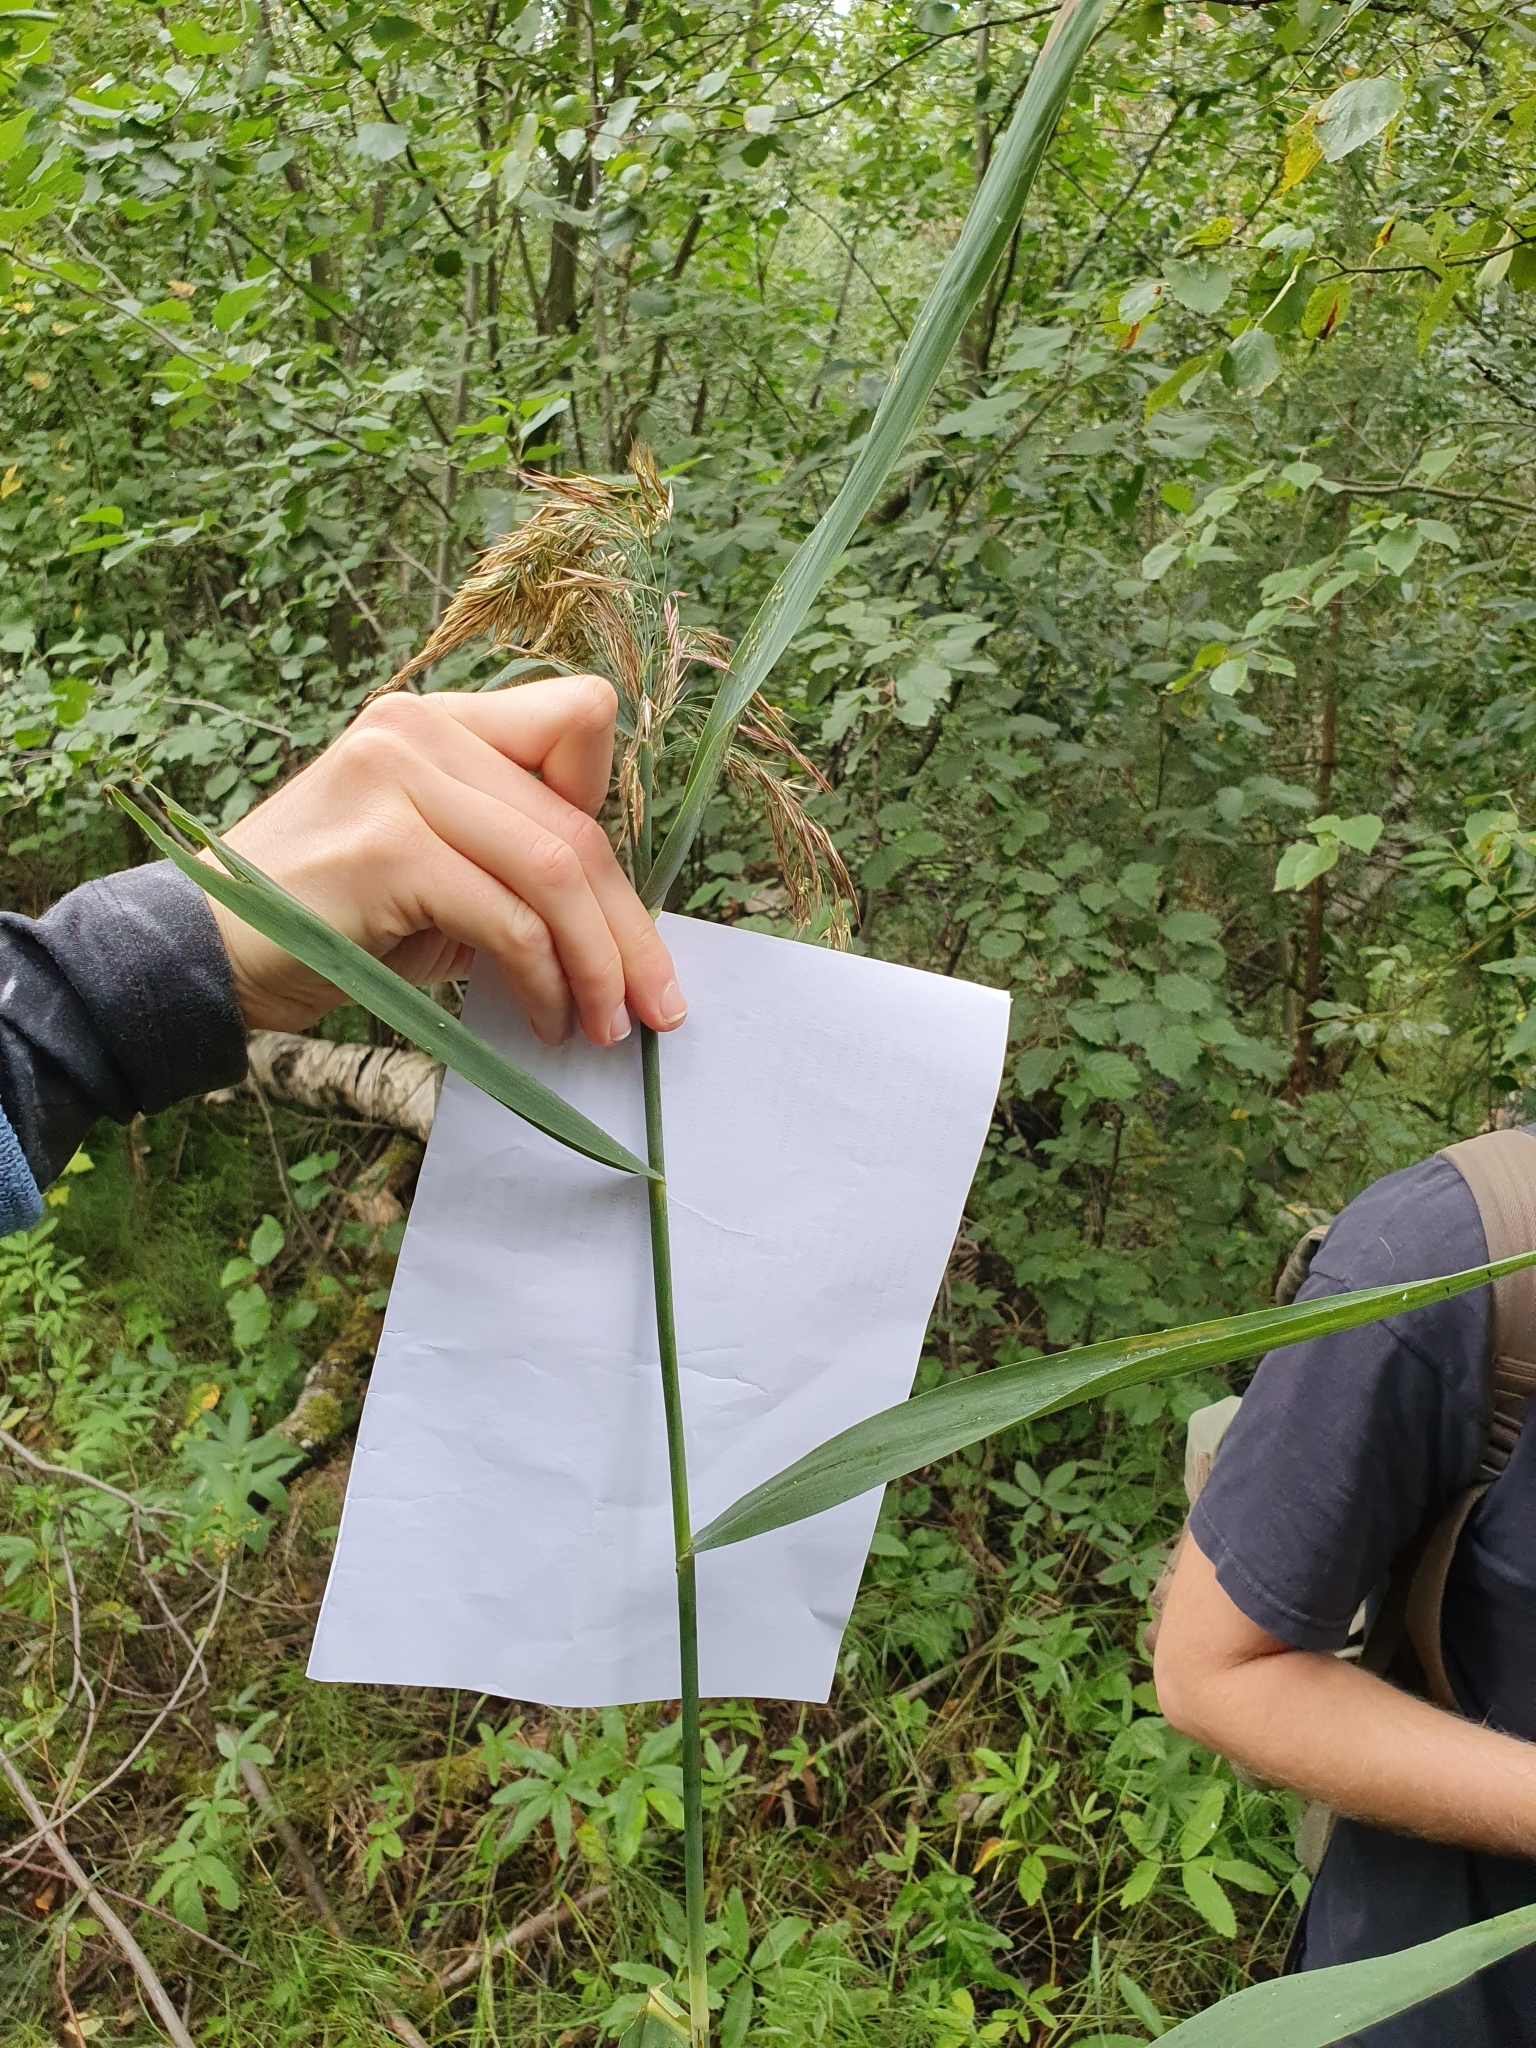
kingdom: Plantae
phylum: Tracheophyta
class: Liliopsida
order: Poales
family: Poaceae
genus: Phragmites
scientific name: Phragmites australis
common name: Common reed
